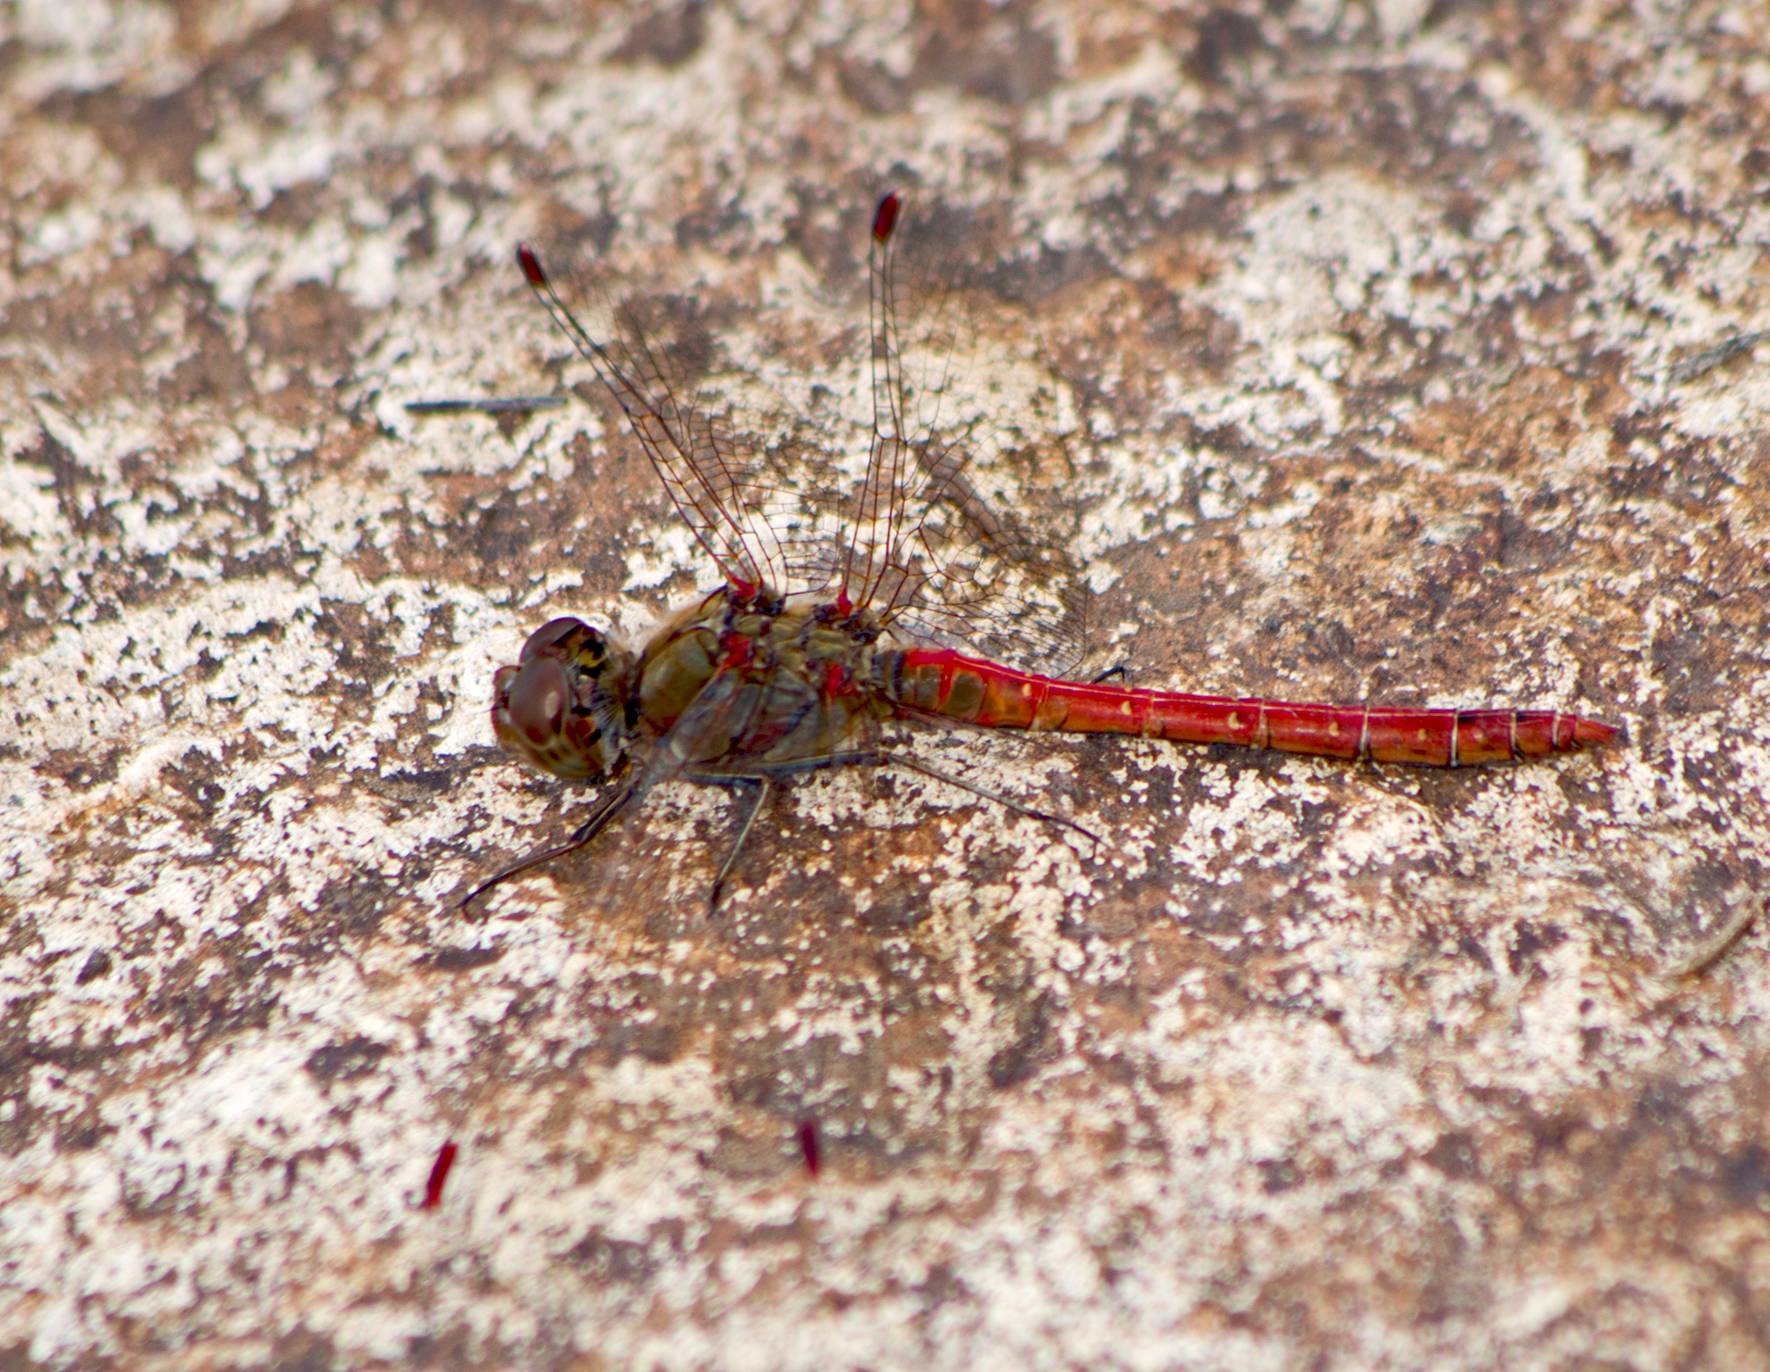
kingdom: Animalia
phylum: Arthropoda
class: Insecta
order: Odonata
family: Libellulidae
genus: Sympetrum
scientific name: Sympetrum striolatum
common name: Common darter
